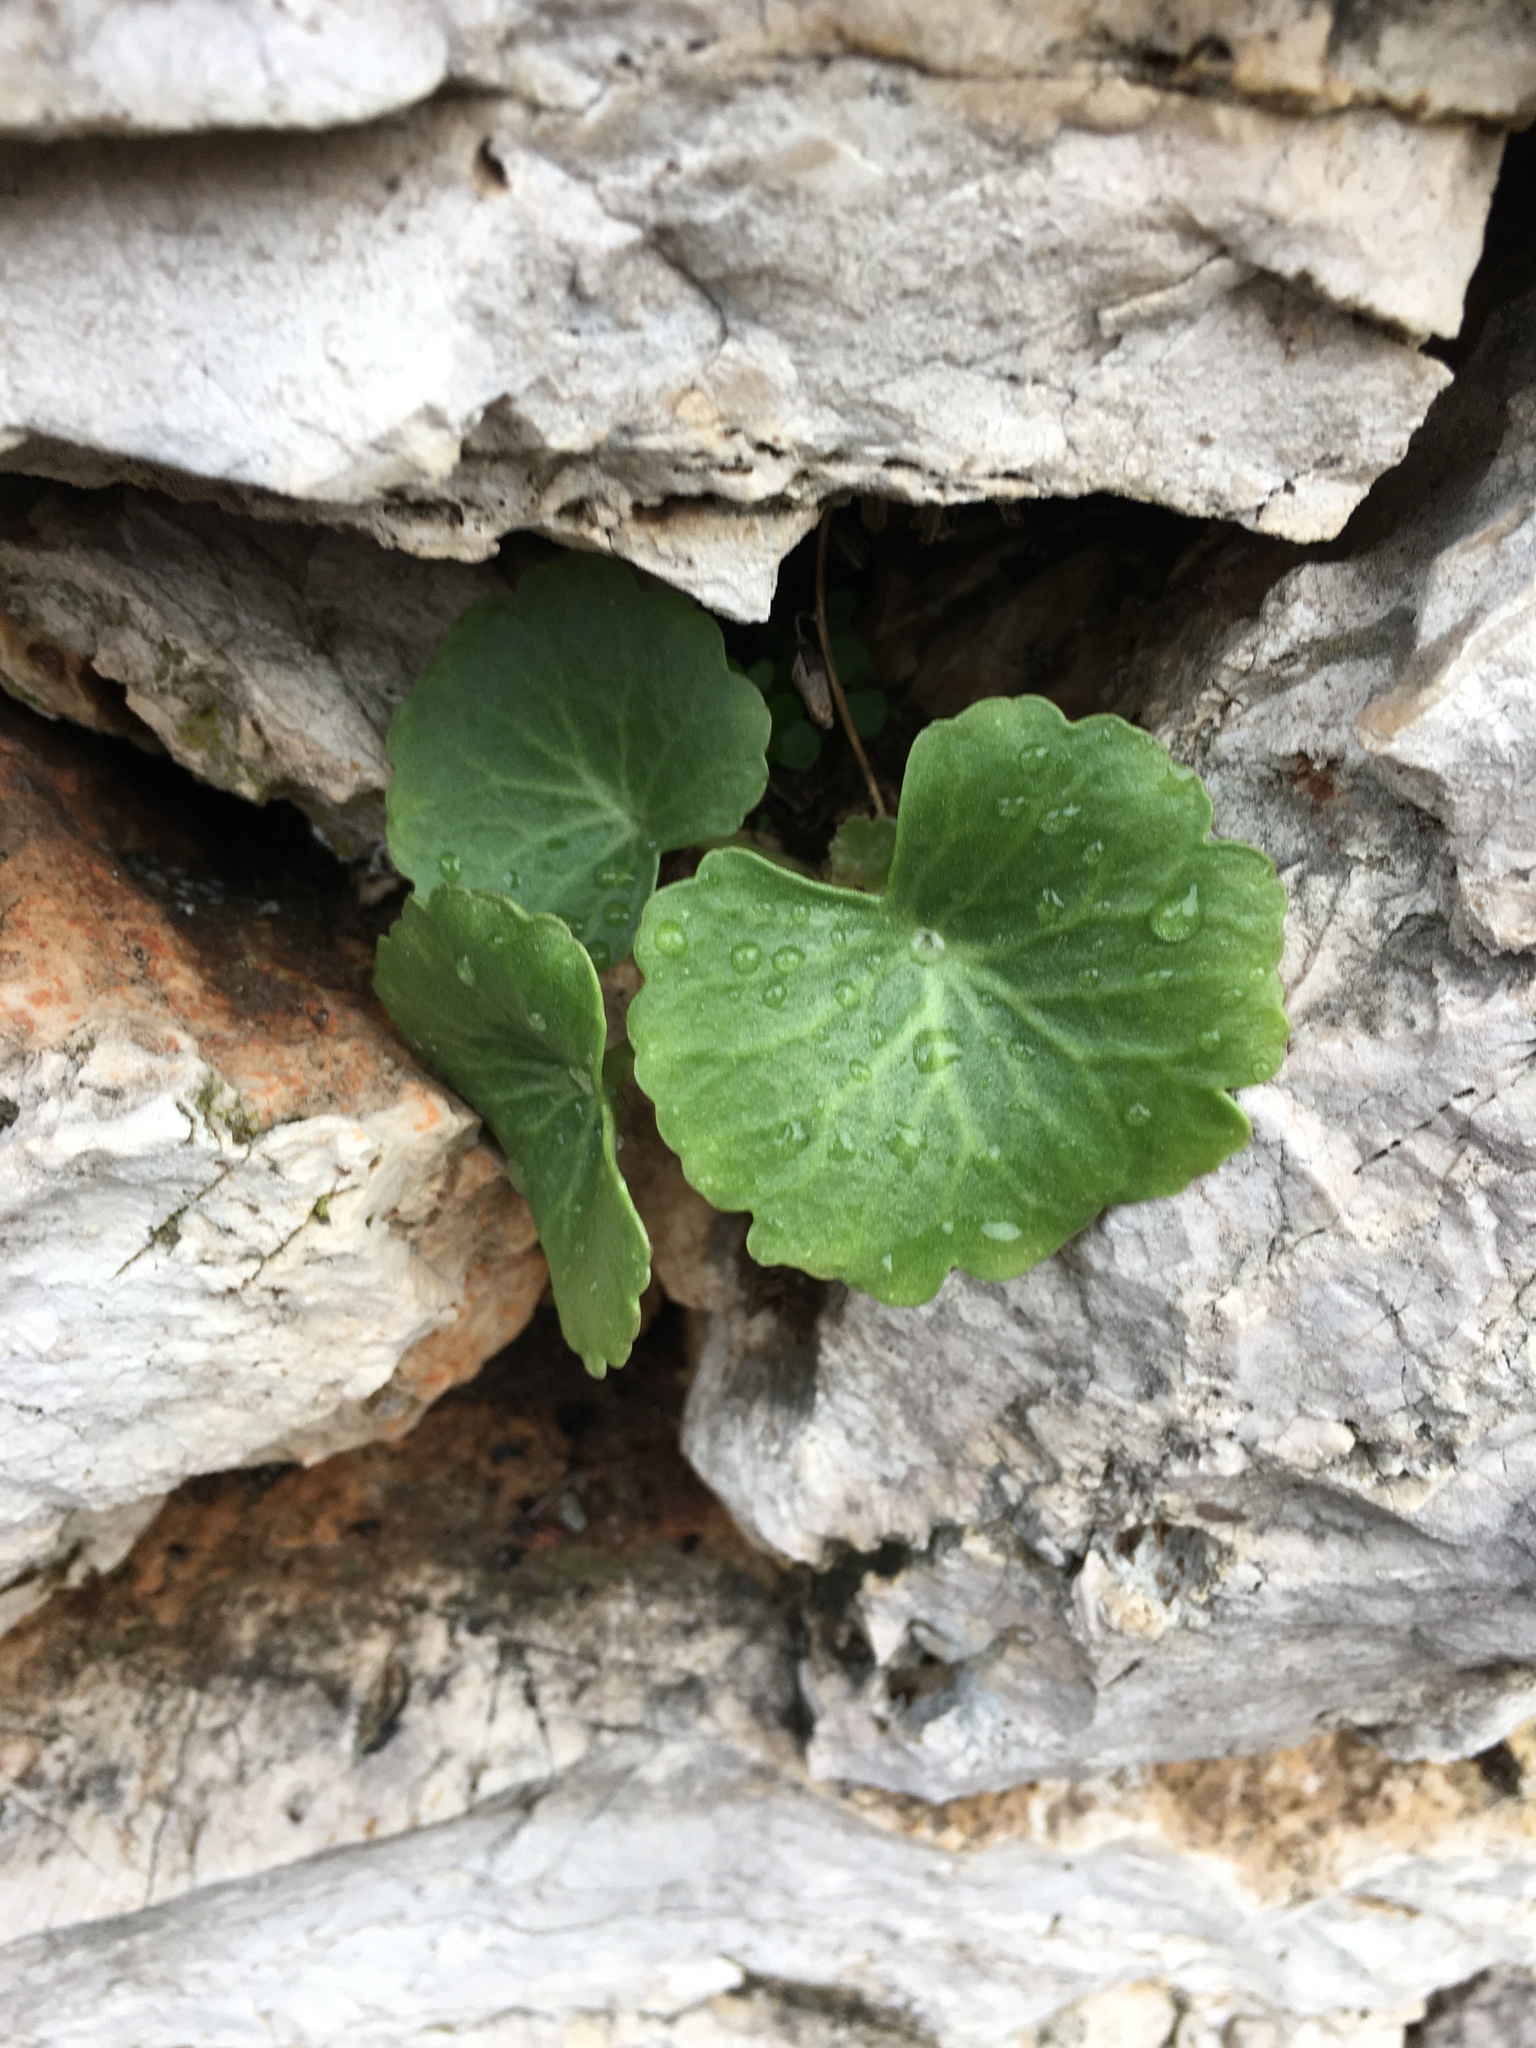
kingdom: Plantae
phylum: Tracheophyta
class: Magnoliopsida
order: Saxifragales
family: Crassulaceae
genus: Umbilicus
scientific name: Umbilicus rupestris
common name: Navelwort
